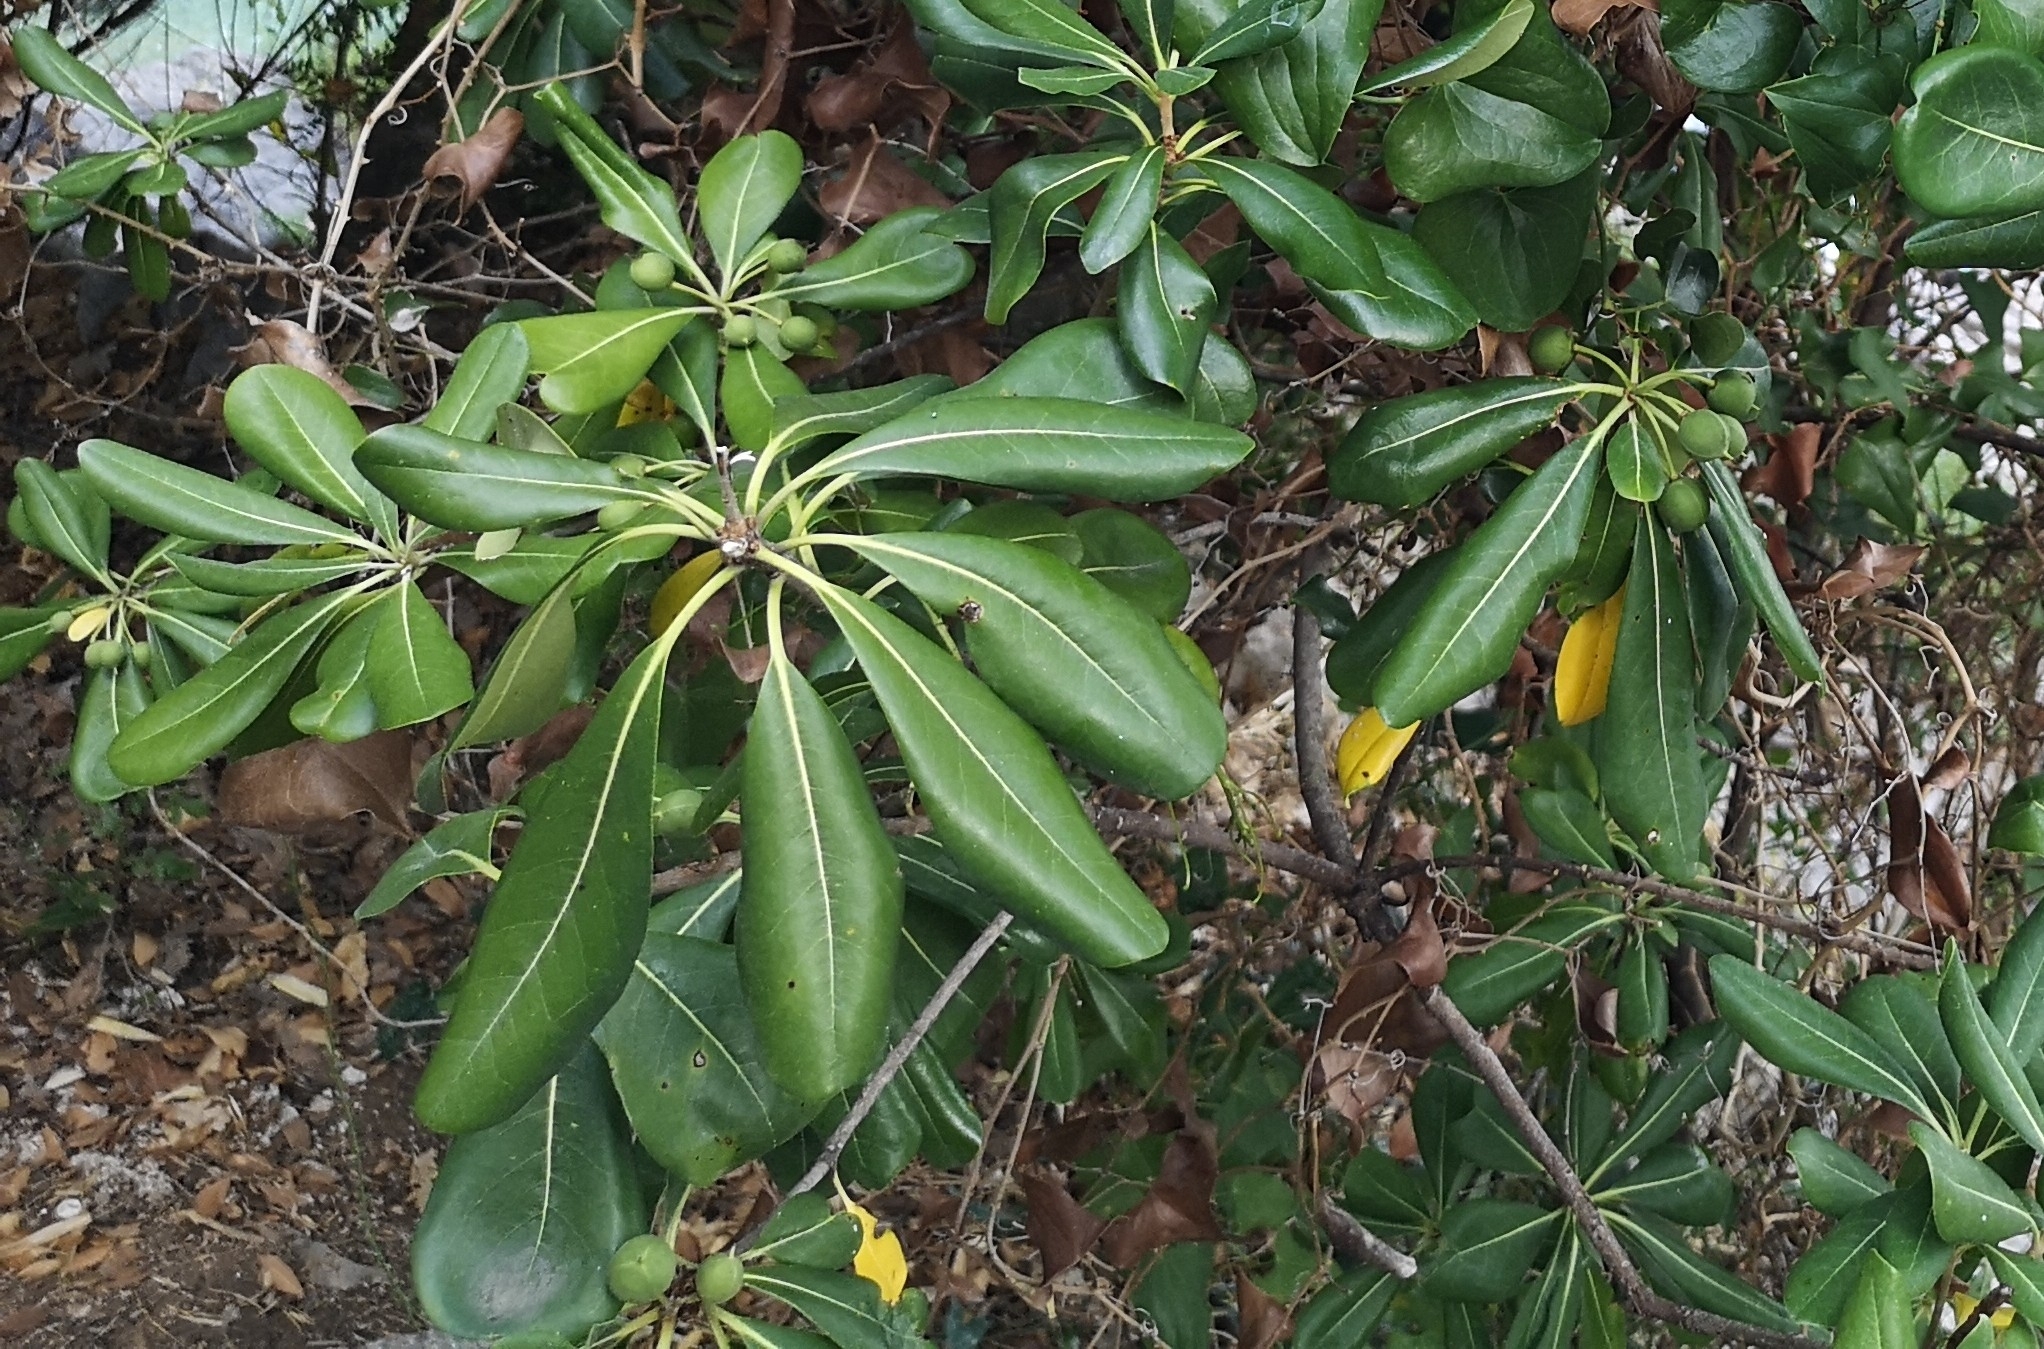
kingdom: Plantae
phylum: Tracheophyta
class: Magnoliopsida
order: Apiales
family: Pittosporaceae
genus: Pittosporum
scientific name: Pittosporum tobira
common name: Japanese cheesewood
